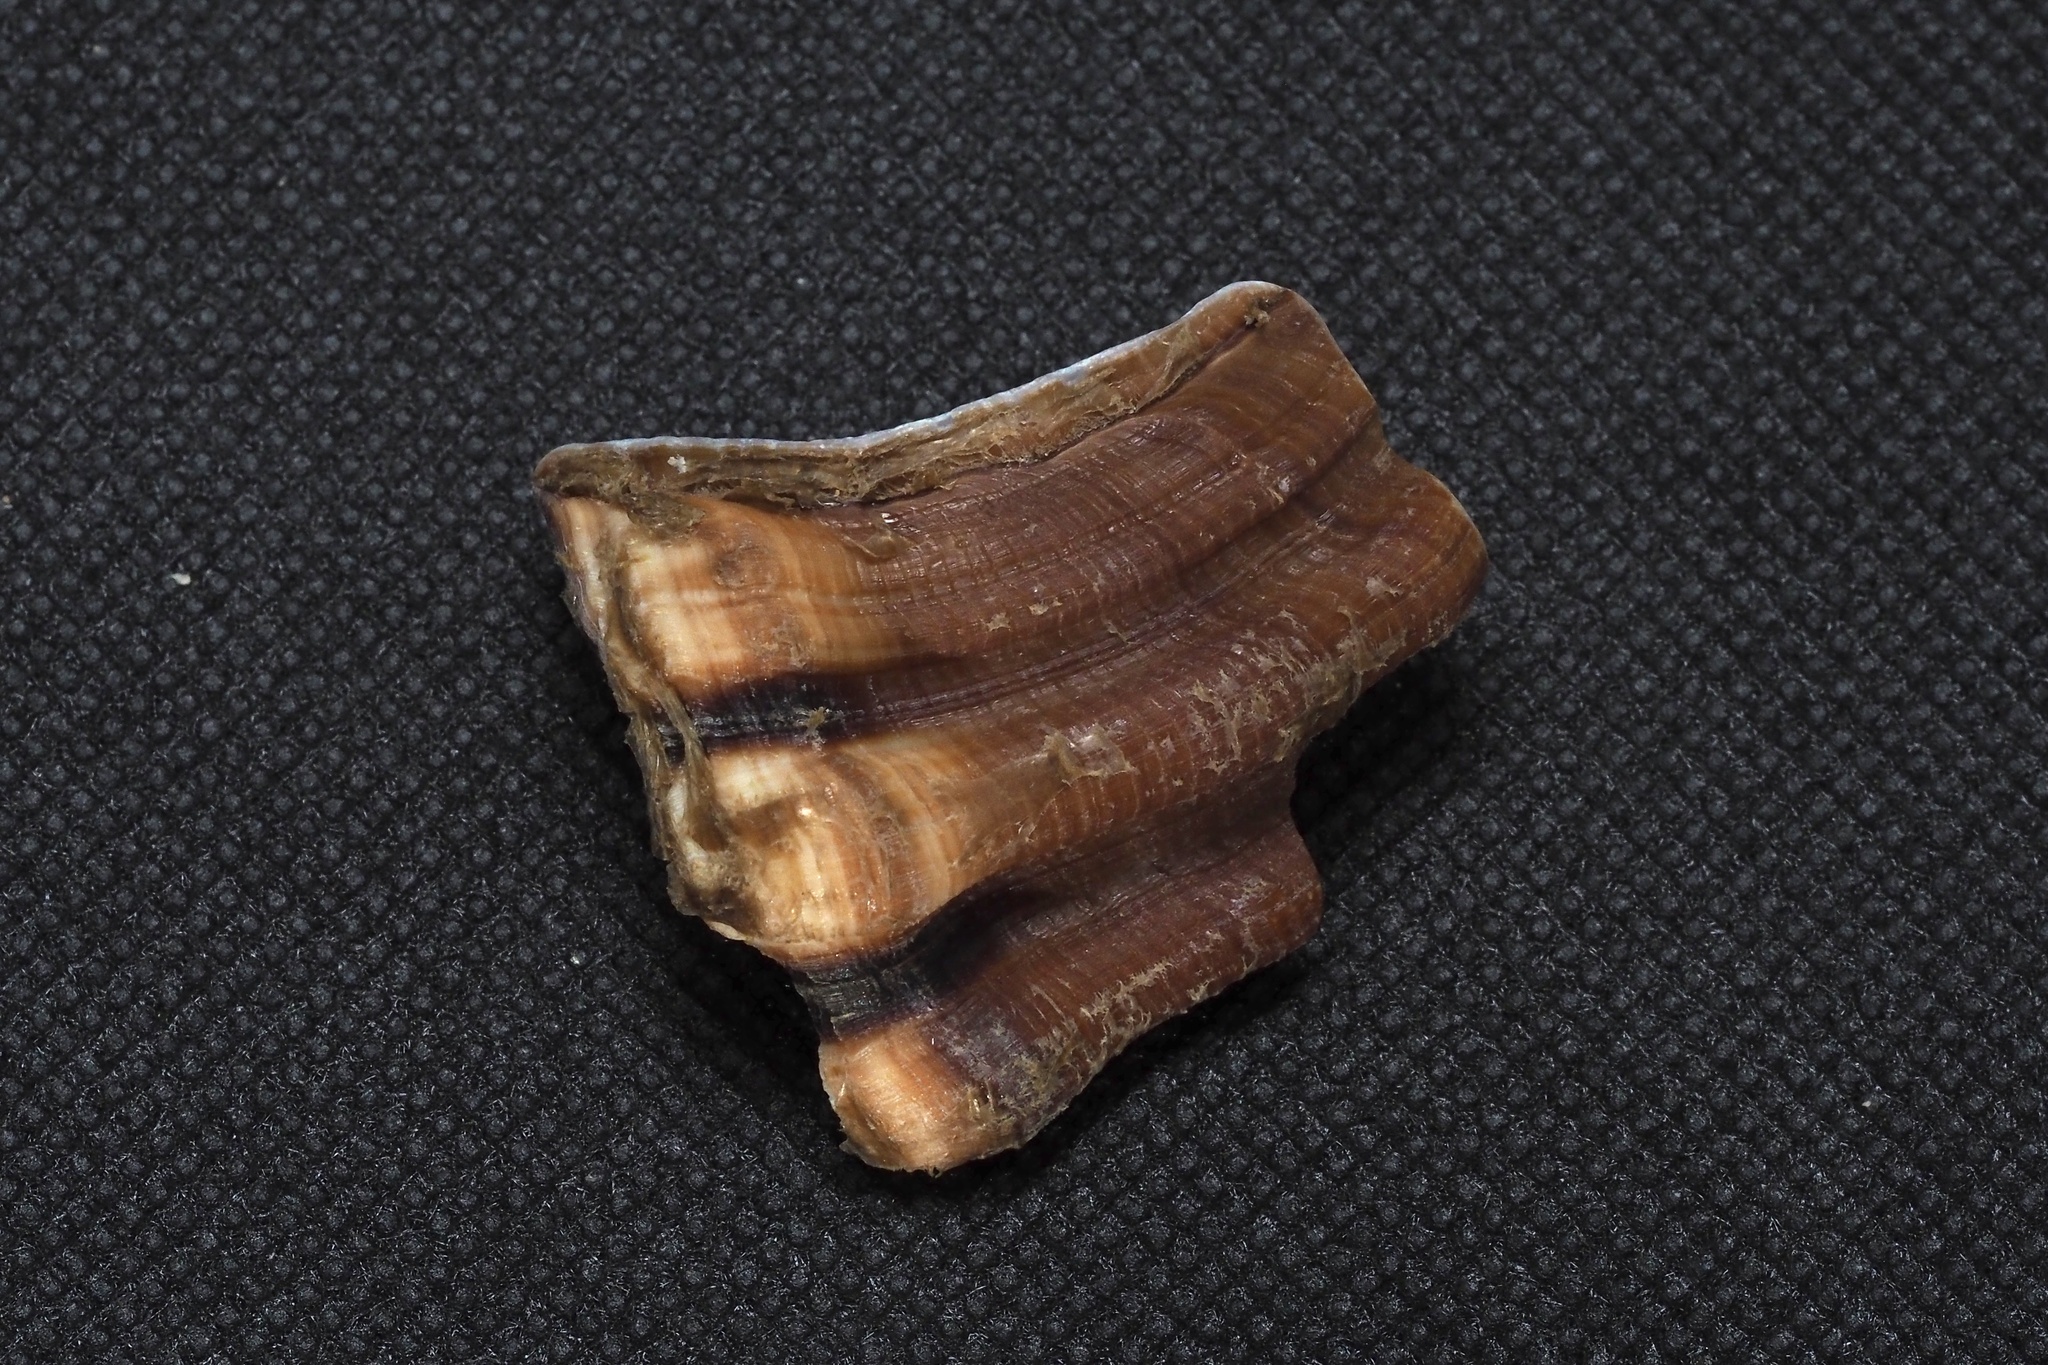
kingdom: Animalia
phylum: Mollusca
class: Gastropoda
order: Littorinimorpha
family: Cymatiidae
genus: Monoplex
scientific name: Monoplex parthenopeus
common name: Giant triton
